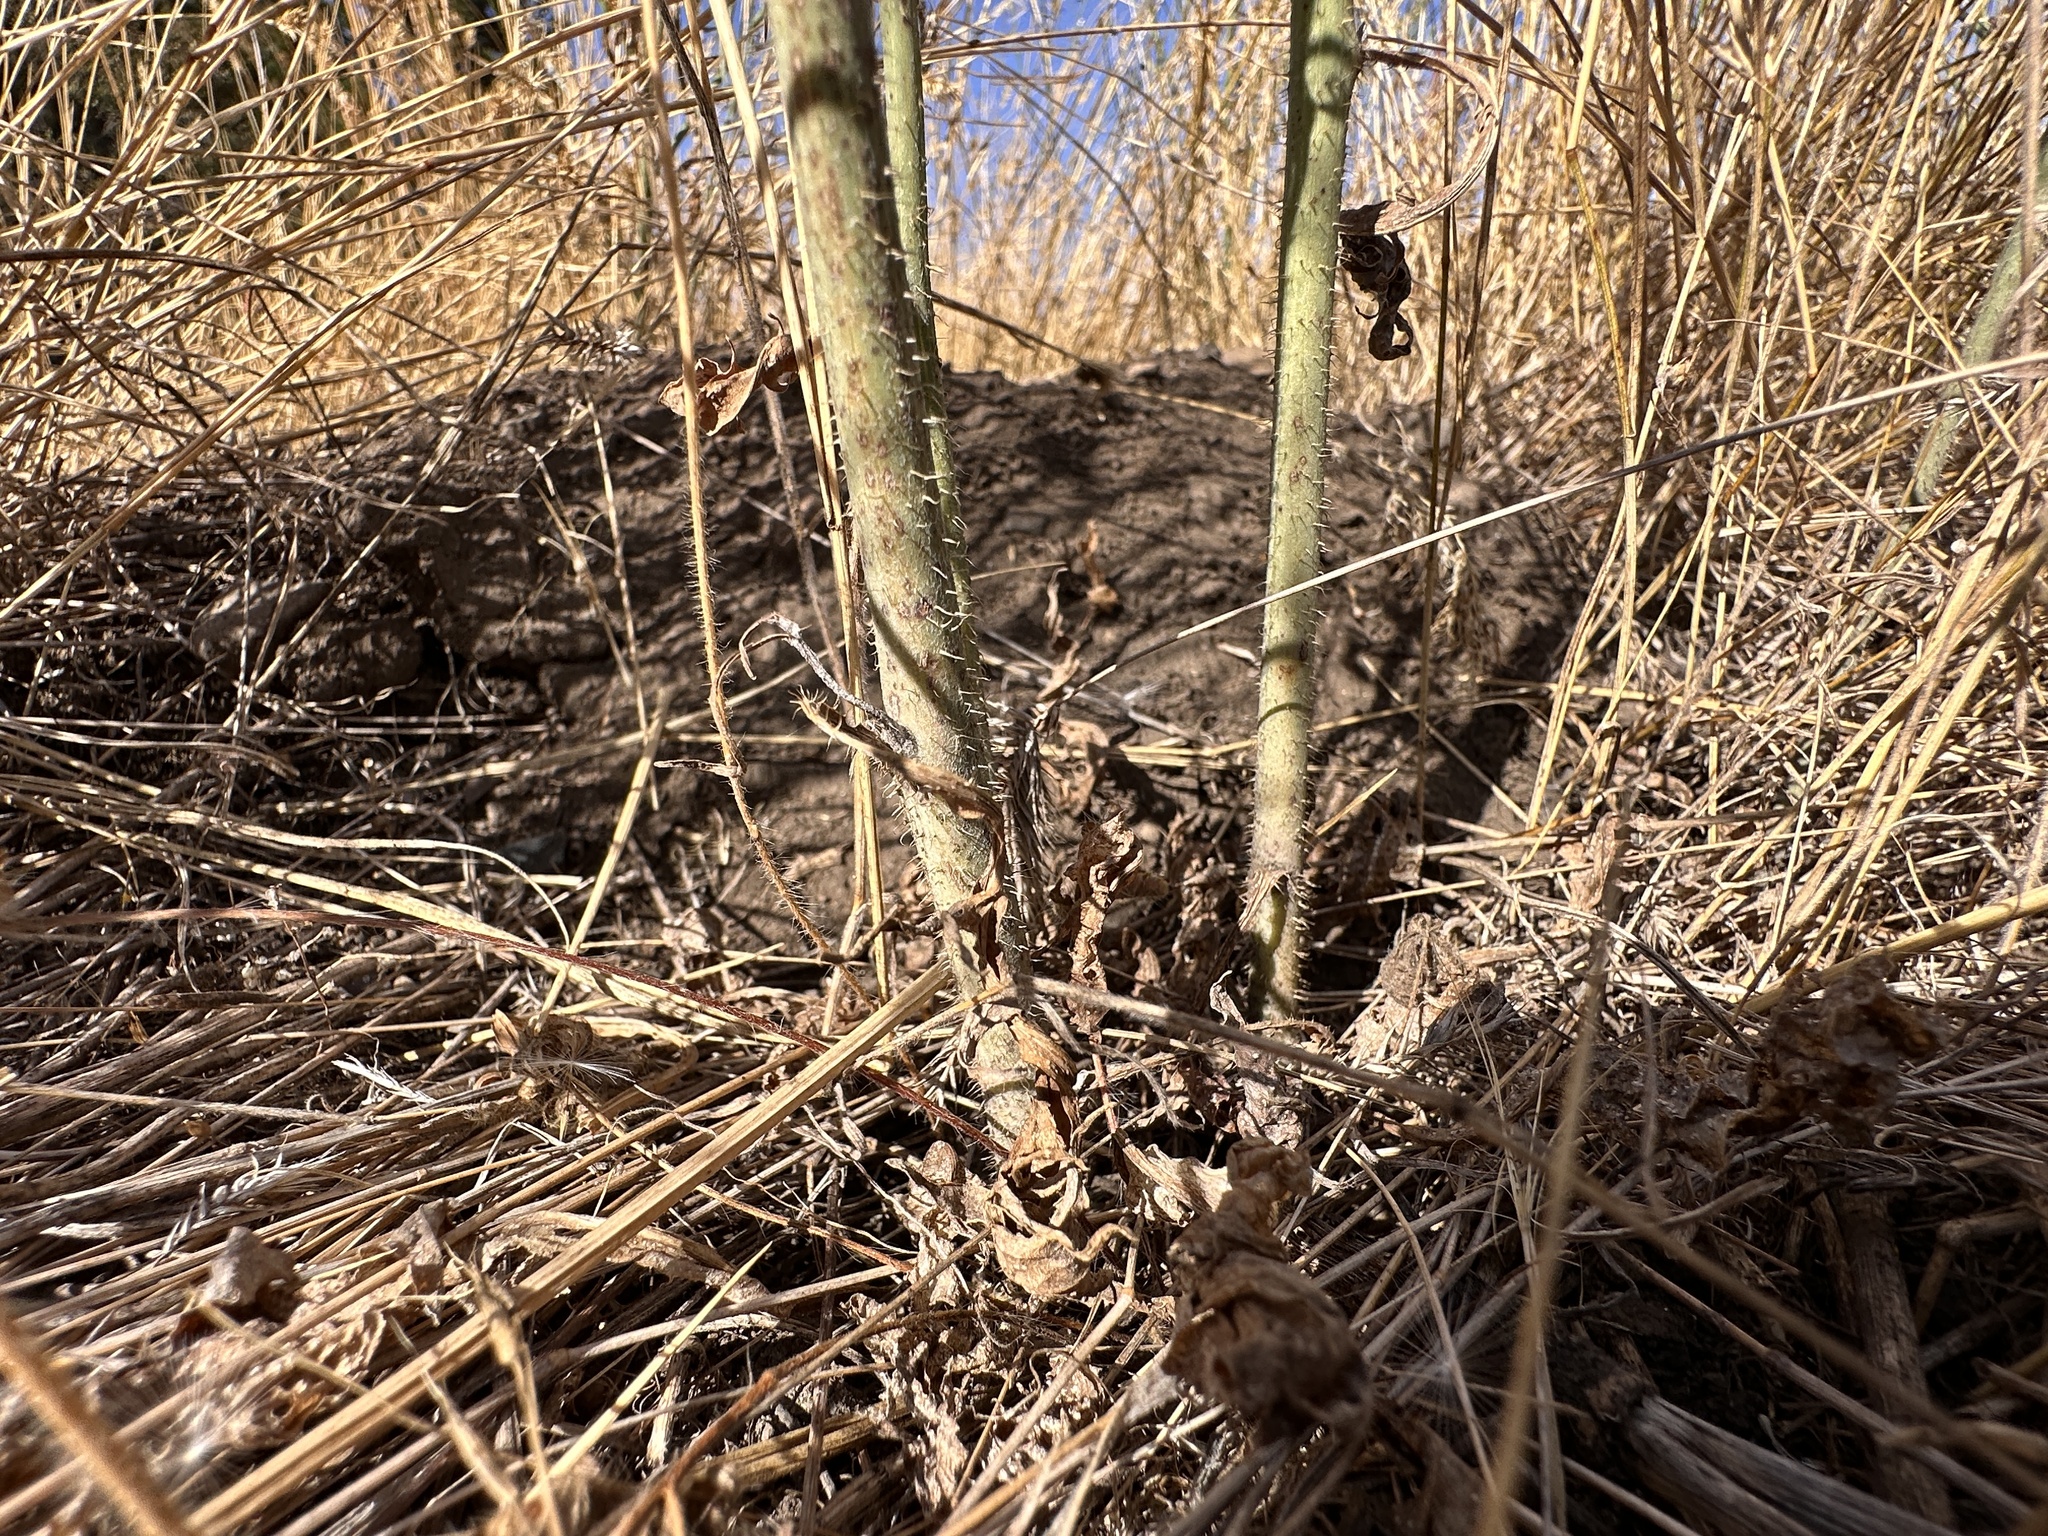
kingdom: Plantae
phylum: Tracheophyta
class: Magnoliopsida
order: Asterales
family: Asteraceae
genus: Chondrilla
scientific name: Chondrilla juncea
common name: Skeleton weed
